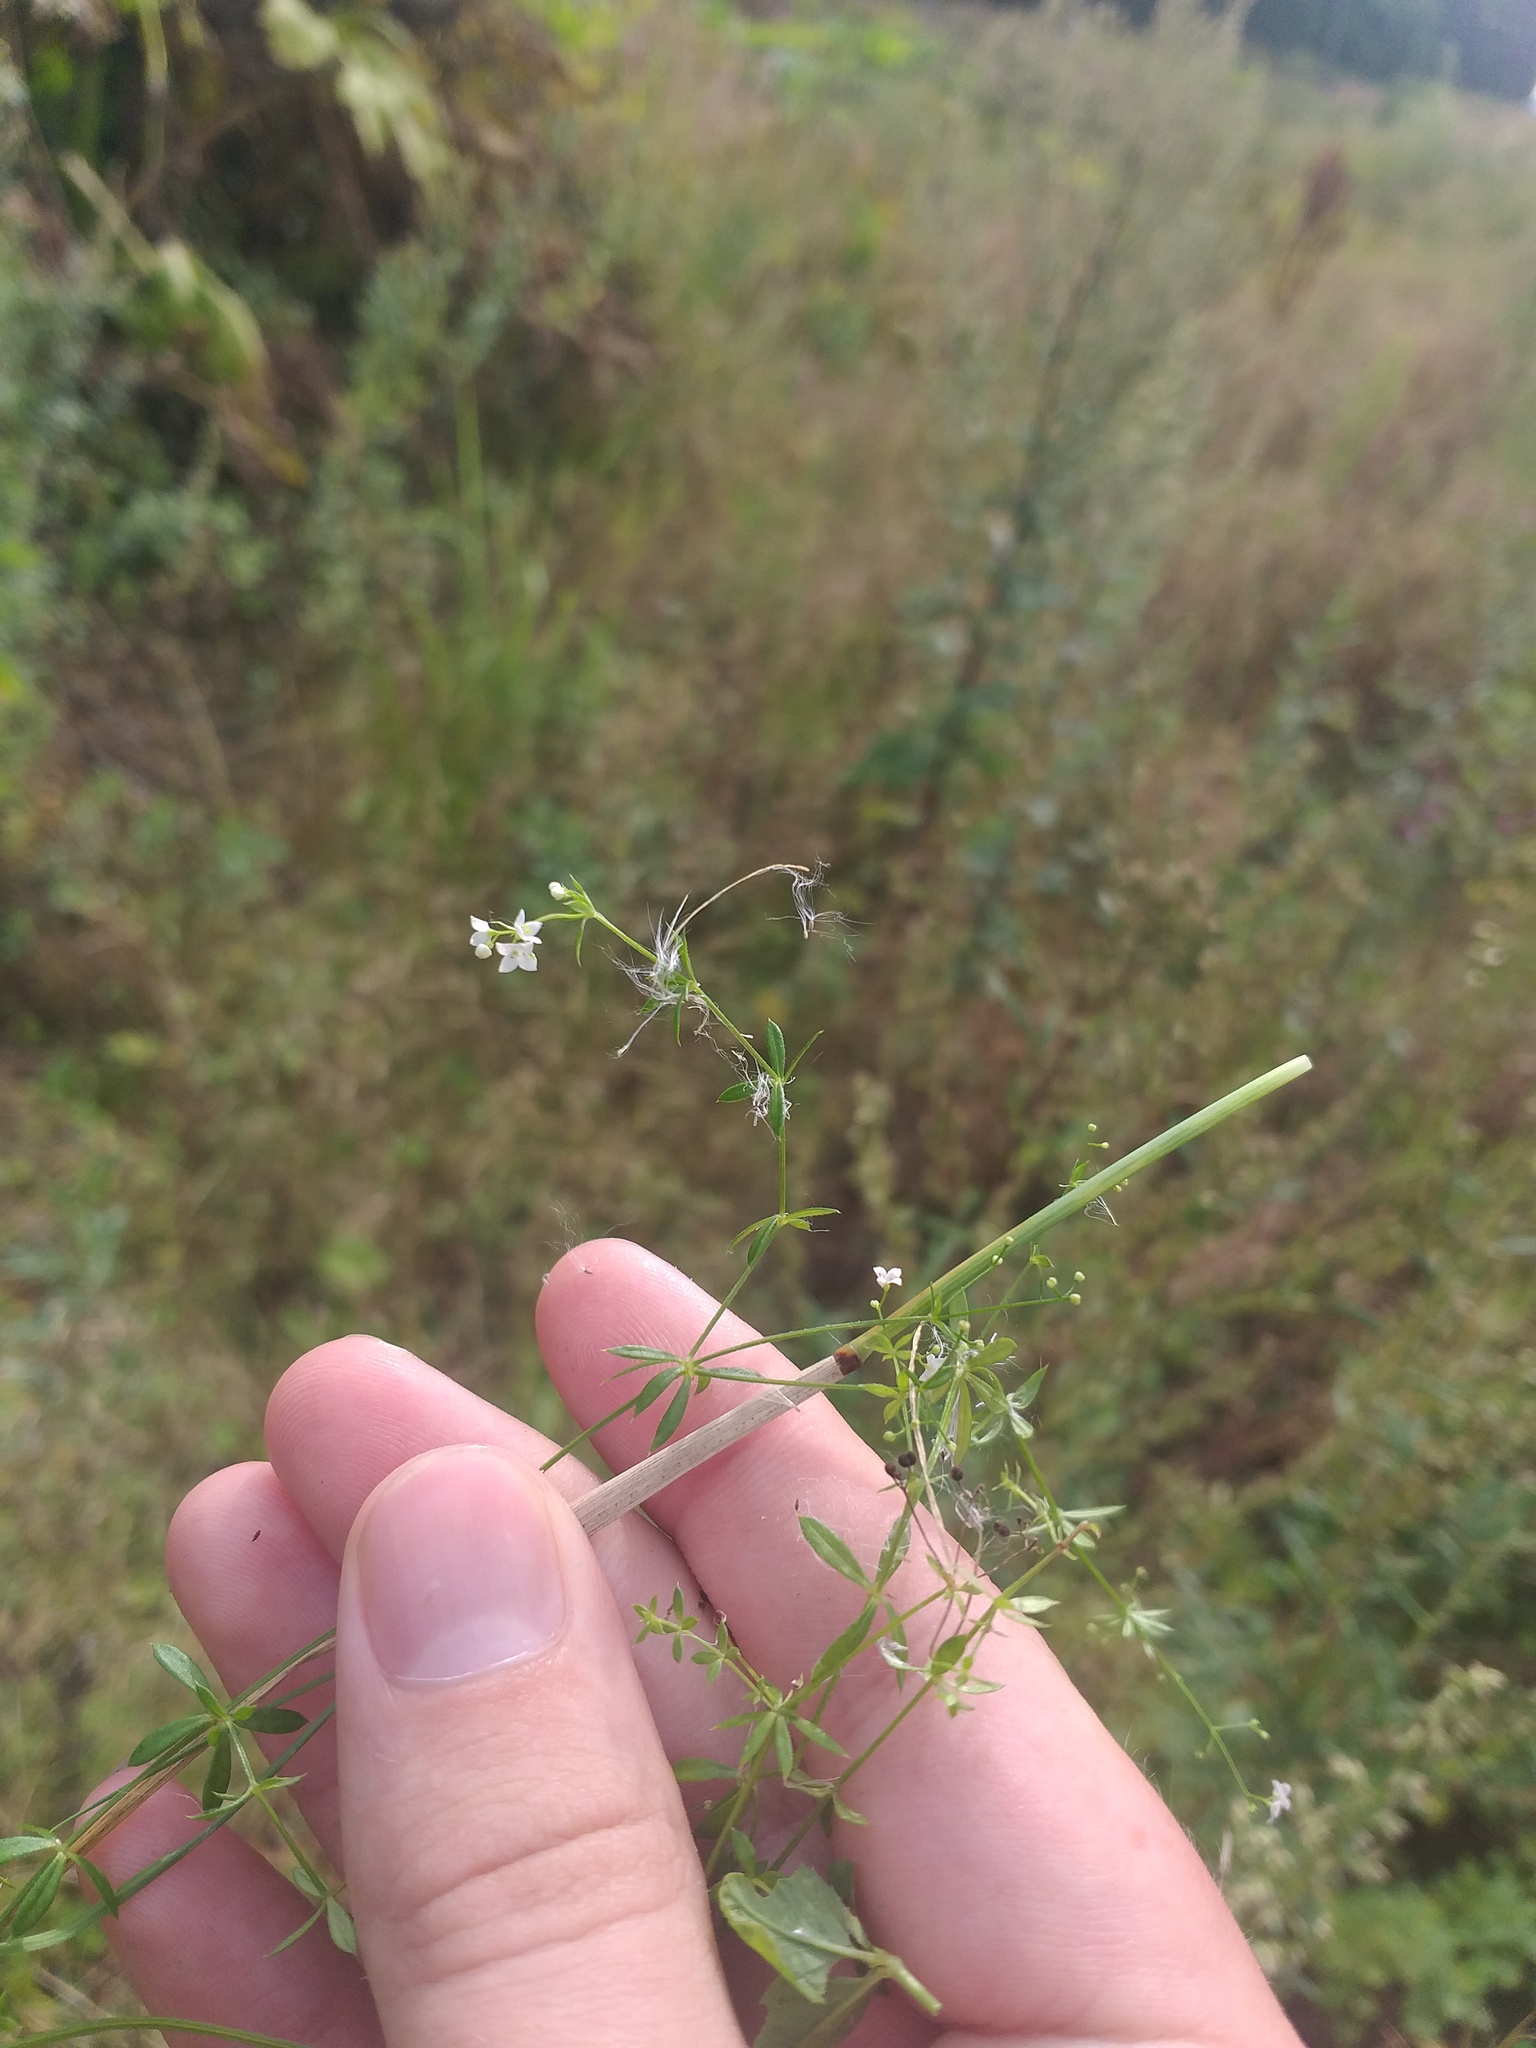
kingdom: Plantae
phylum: Tracheophyta
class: Magnoliopsida
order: Gentianales
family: Rubiaceae
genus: Galium
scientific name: Galium uliginosum
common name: Fen bedstraw
